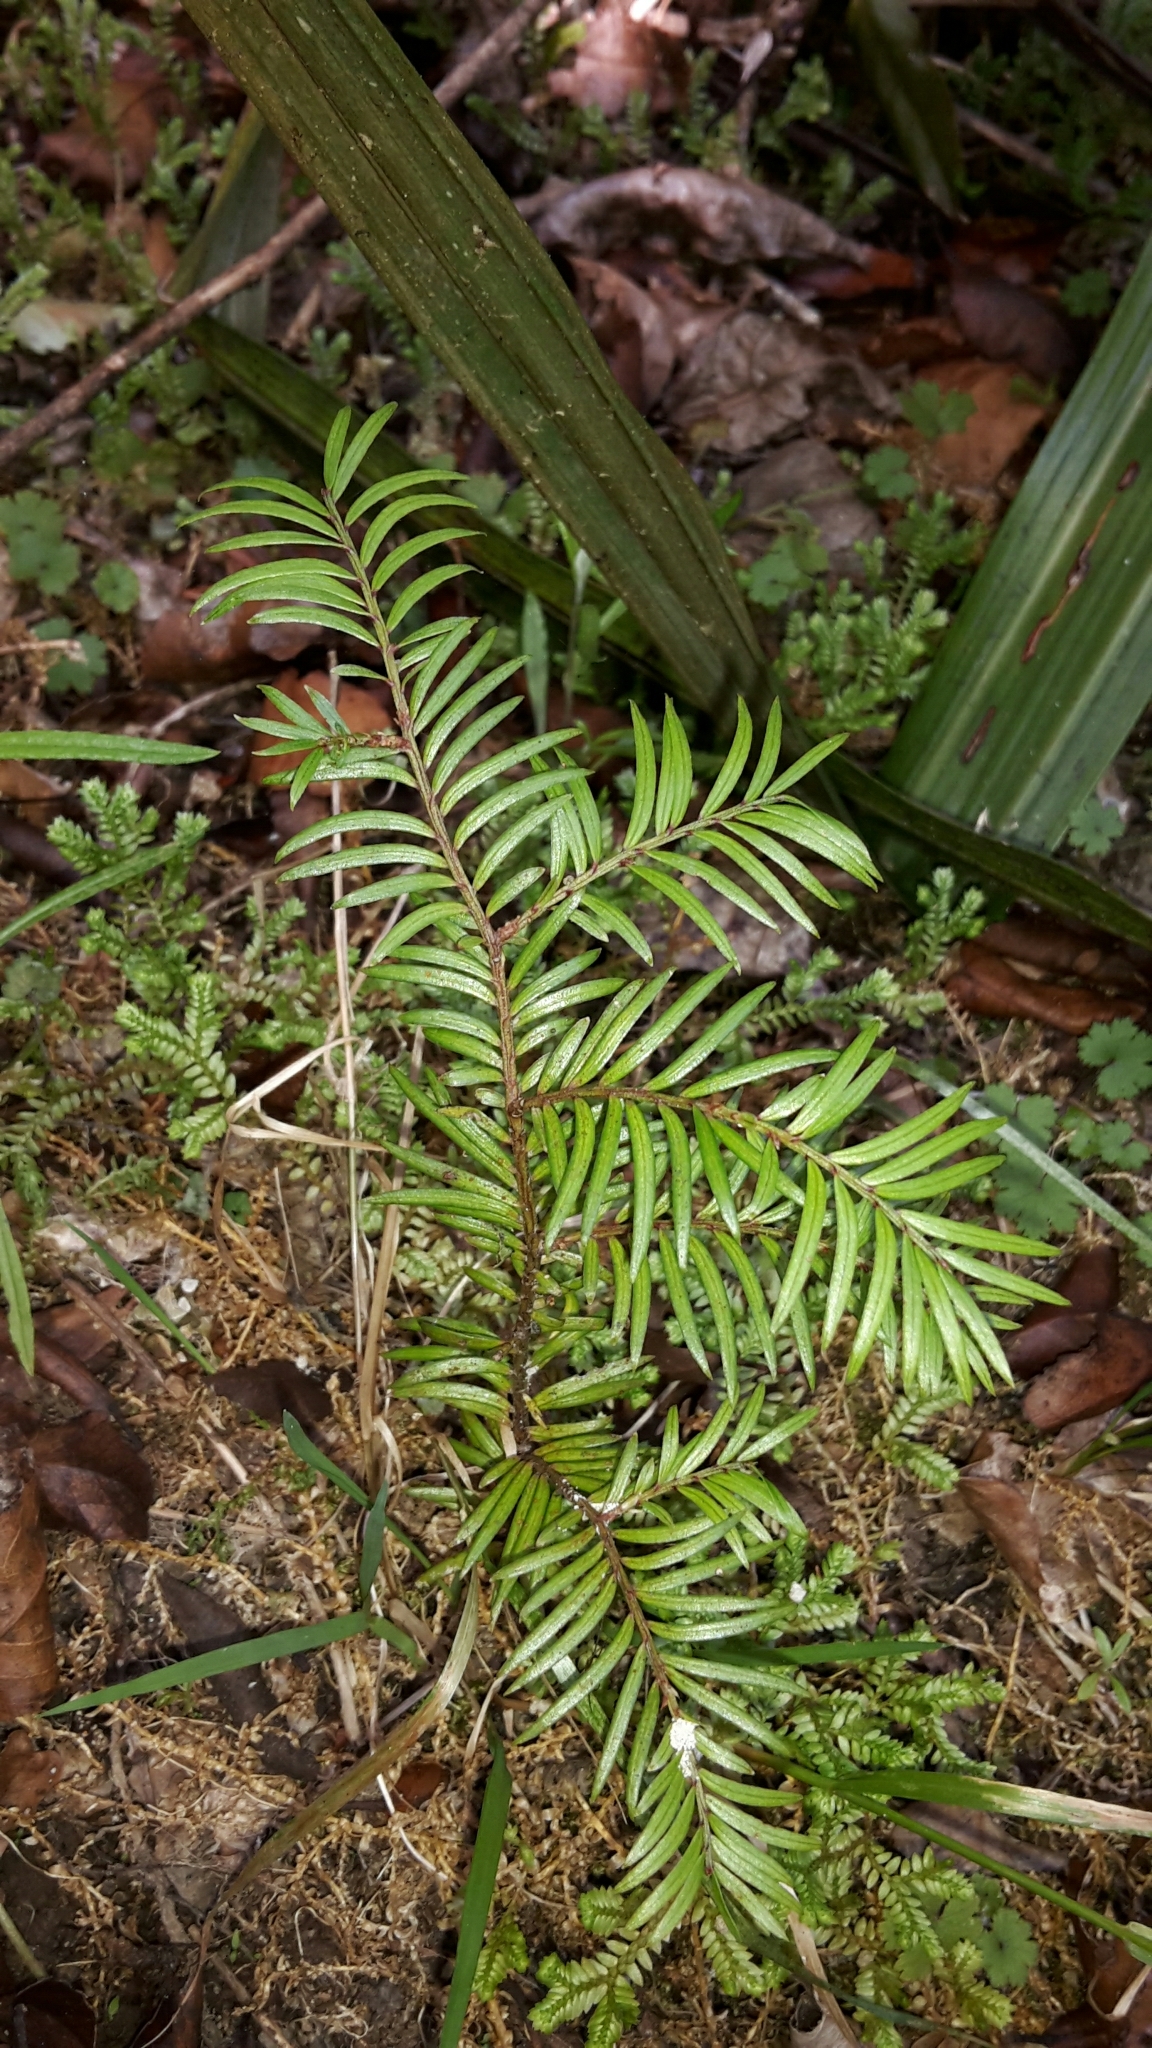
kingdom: Plantae
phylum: Tracheophyta
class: Pinopsida
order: Pinales
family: Podocarpaceae
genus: Prumnopitys
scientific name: Prumnopitys ferruginea
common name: Brown pine
